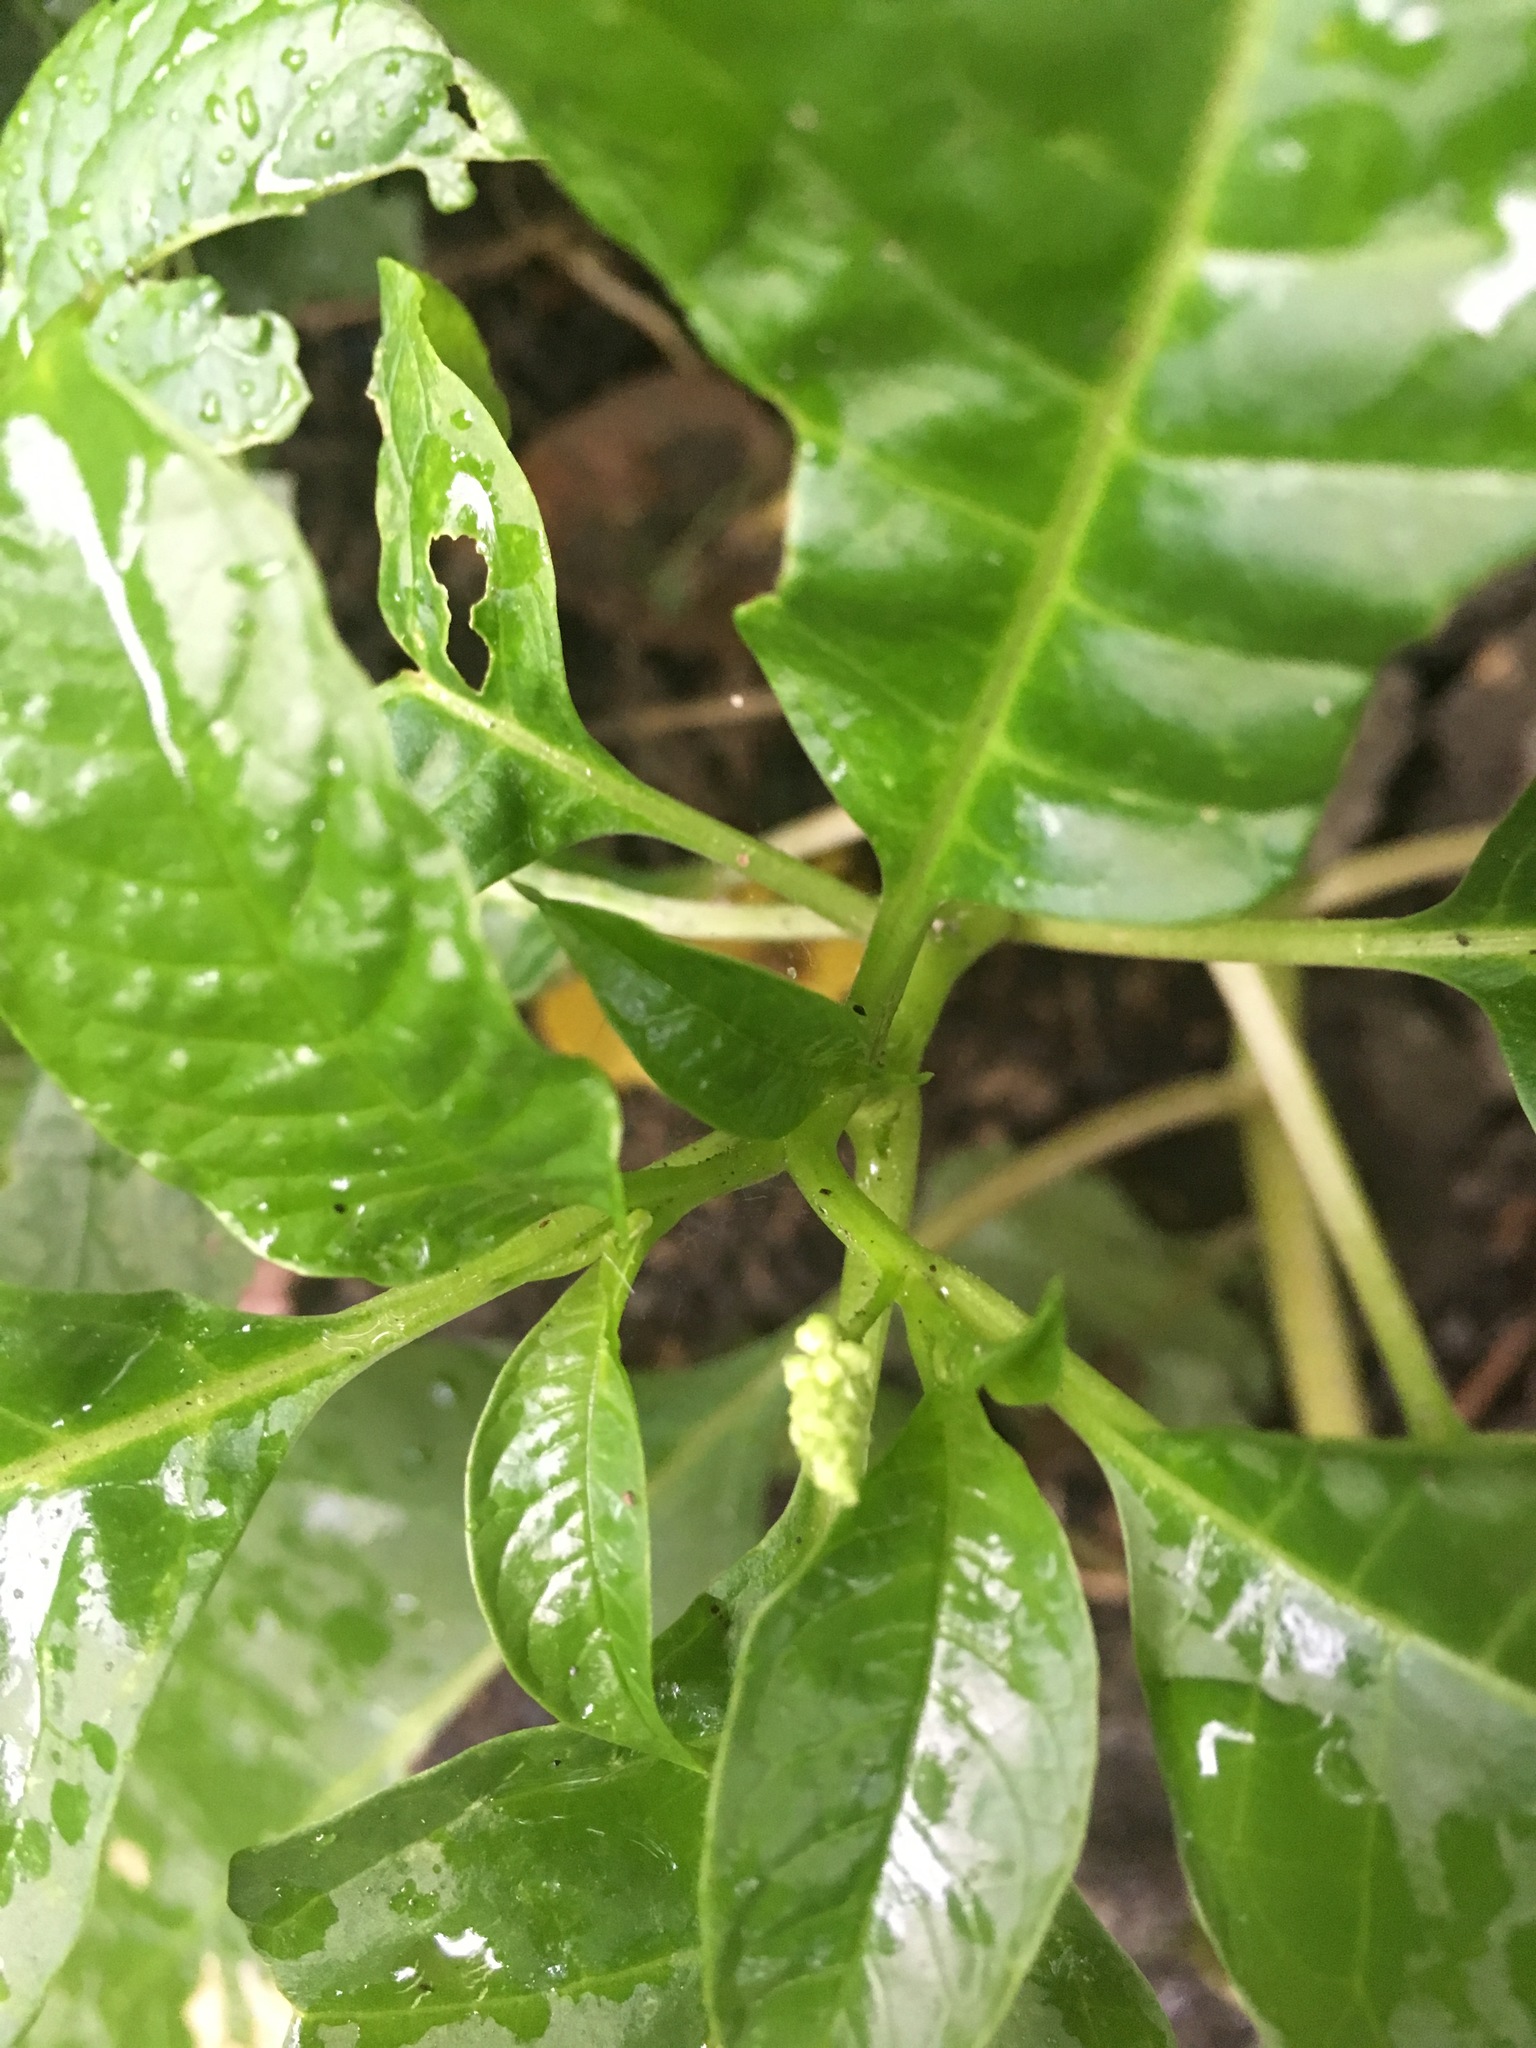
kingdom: Plantae
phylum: Tracheophyta
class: Magnoliopsida
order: Caryophyllales
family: Phytolaccaceae
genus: Phytolacca
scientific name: Phytolacca americana
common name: American pokeweed
